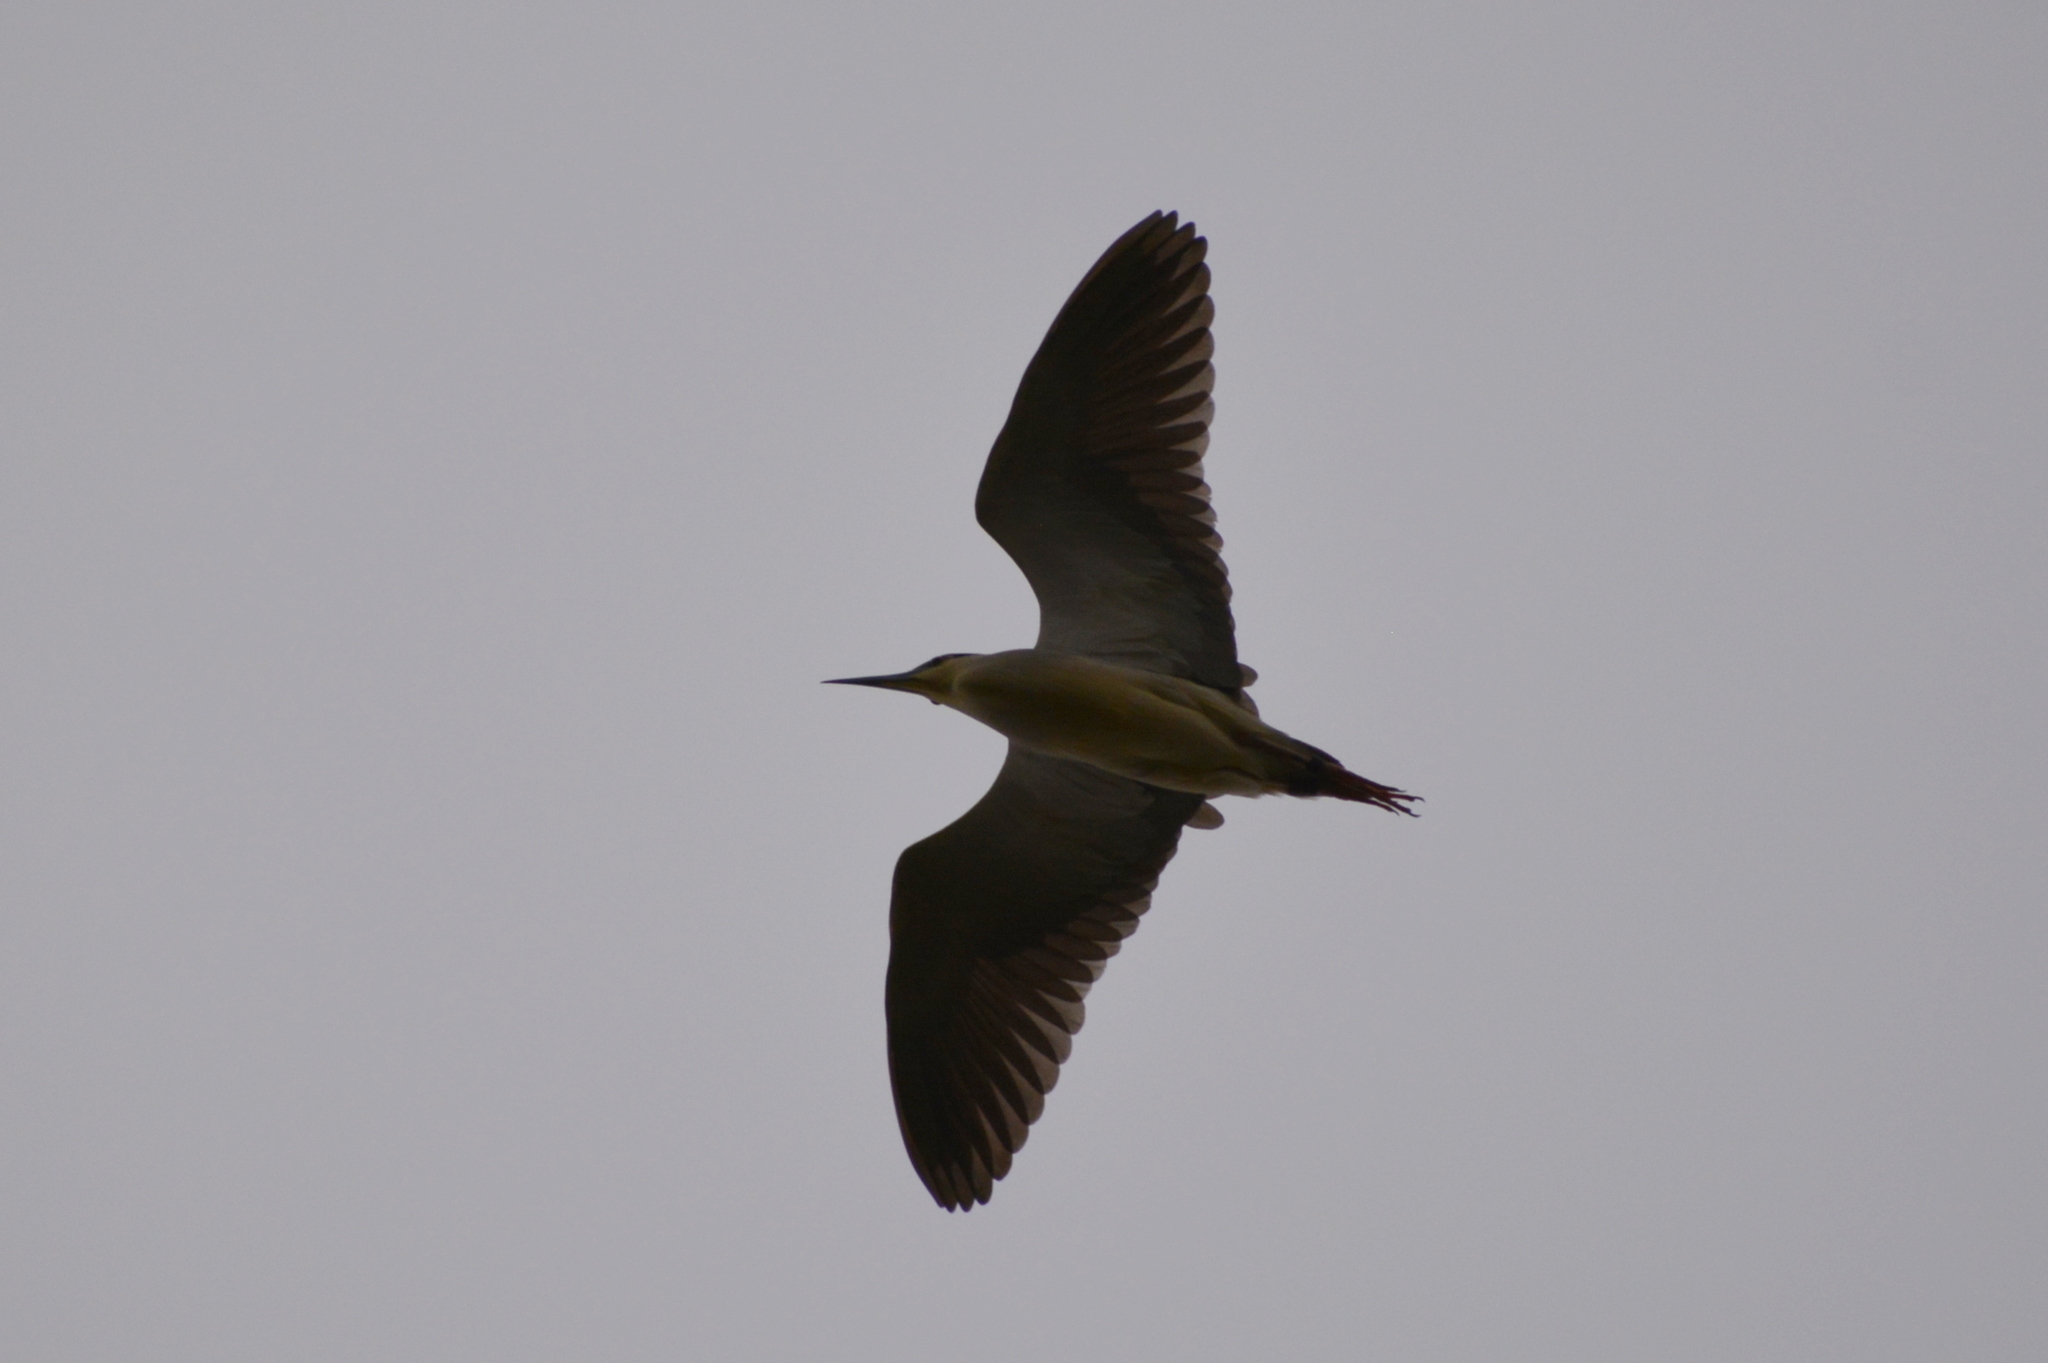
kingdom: Animalia
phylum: Chordata
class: Aves
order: Pelecaniformes
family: Ardeidae
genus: Nycticorax
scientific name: Nycticorax nycticorax
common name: Black-crowned night heron
